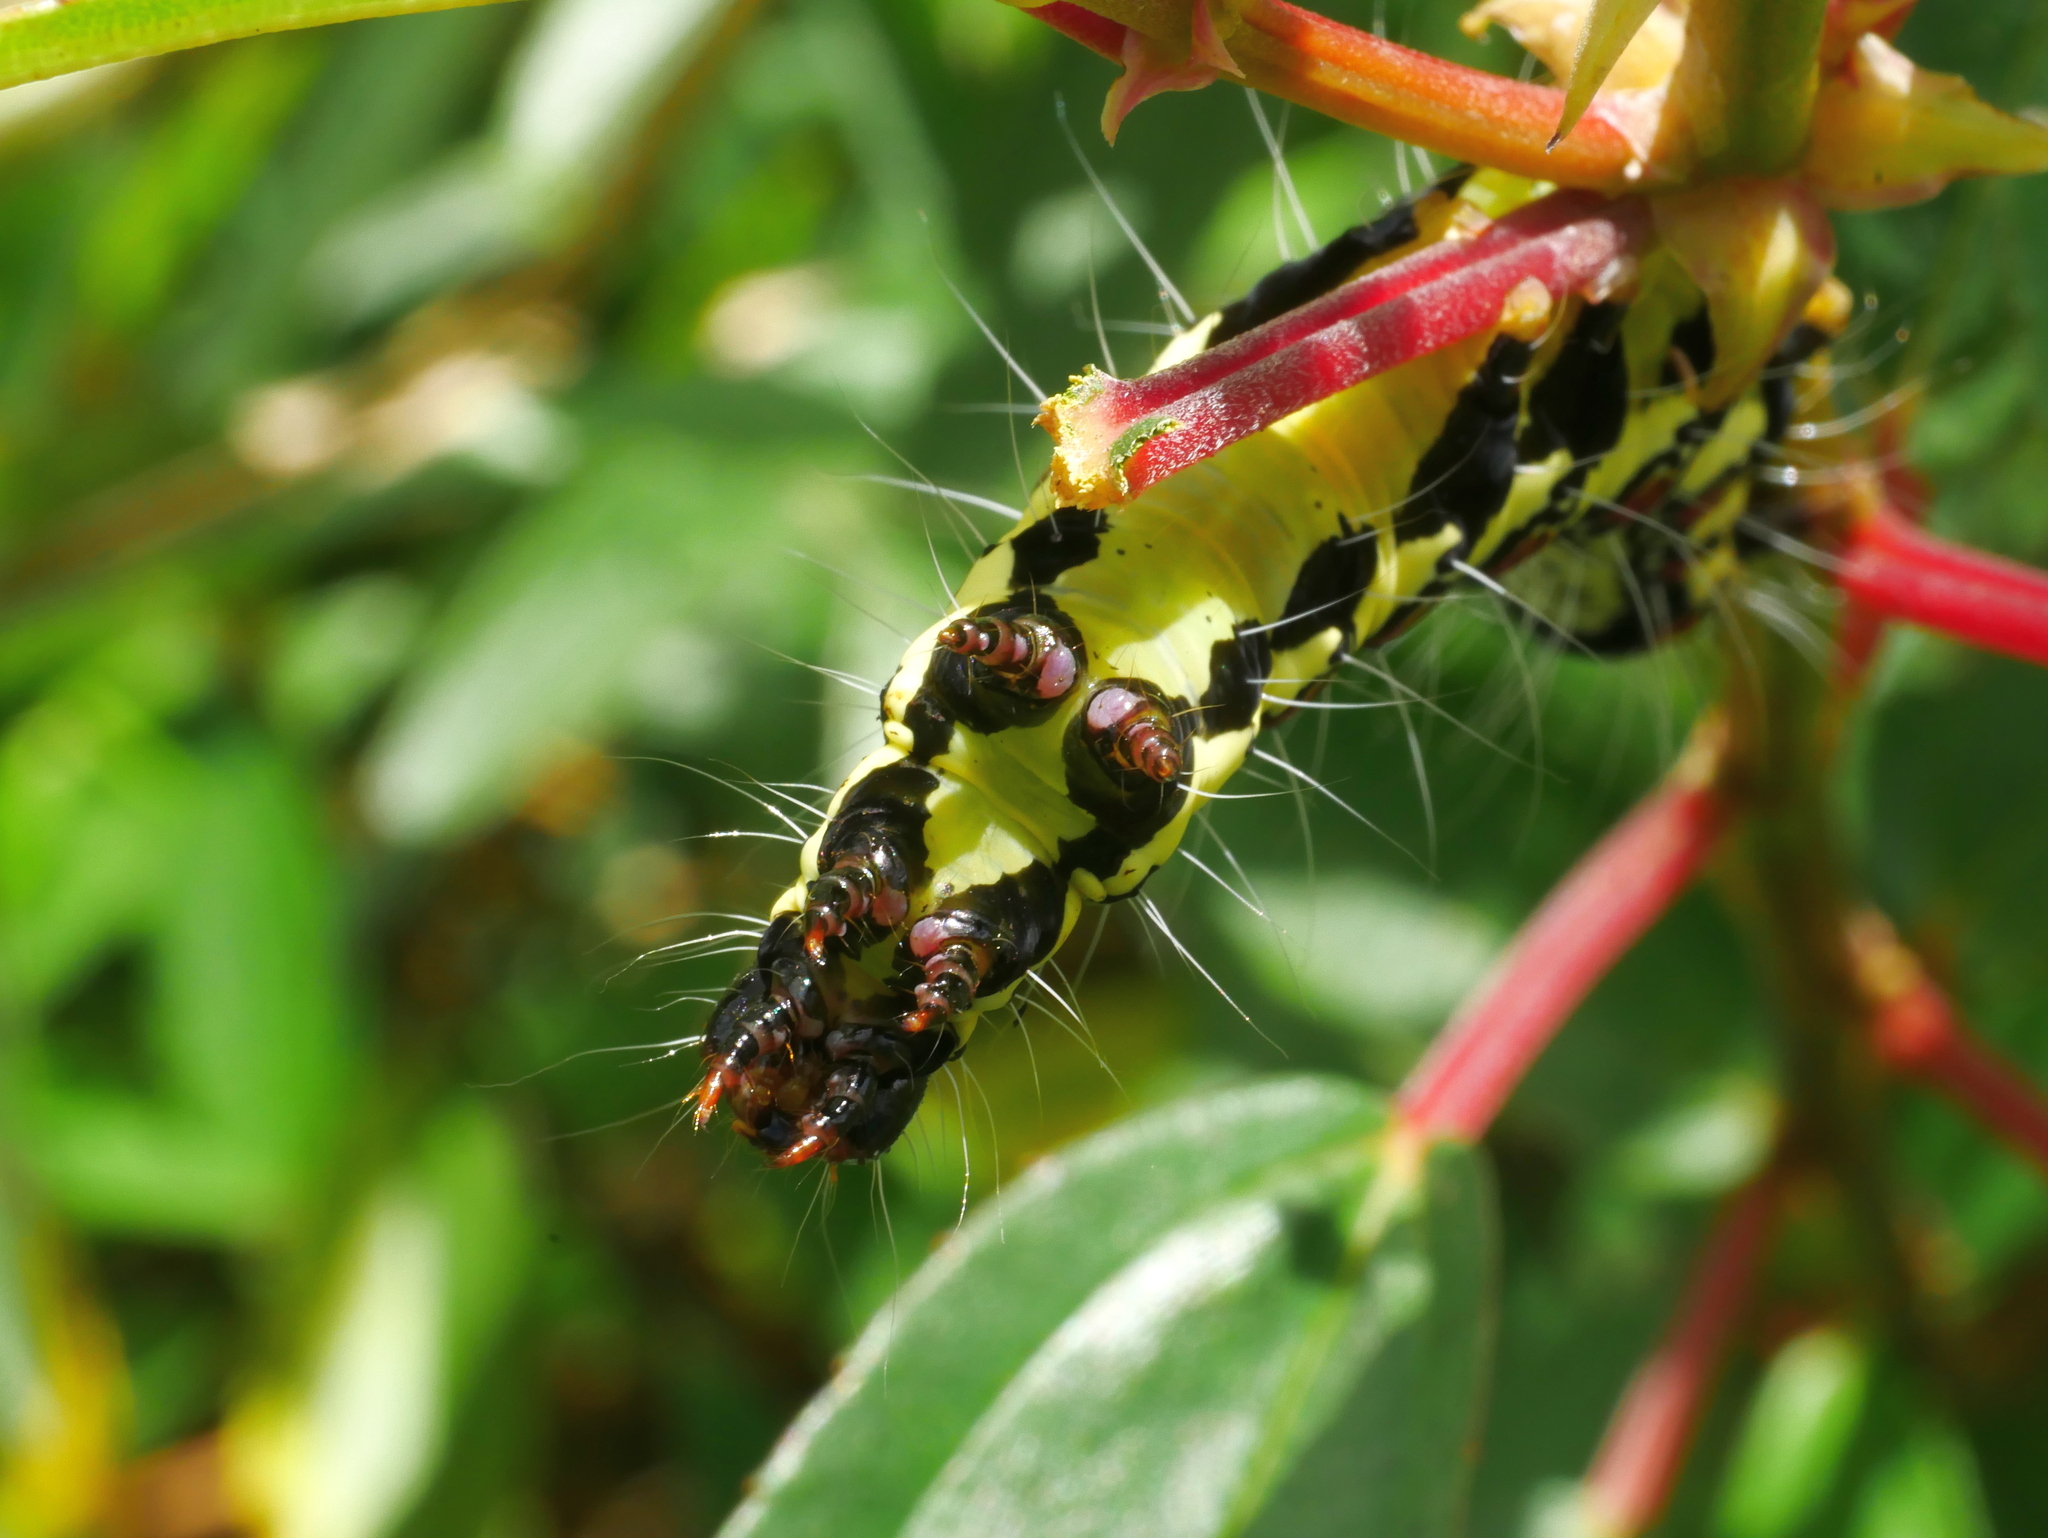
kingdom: Animalia
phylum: Arthropoda
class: Insecta
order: Lepidoptera
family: Erebidae
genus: Arcte
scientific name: Arcte coerula
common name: Ramie moth
